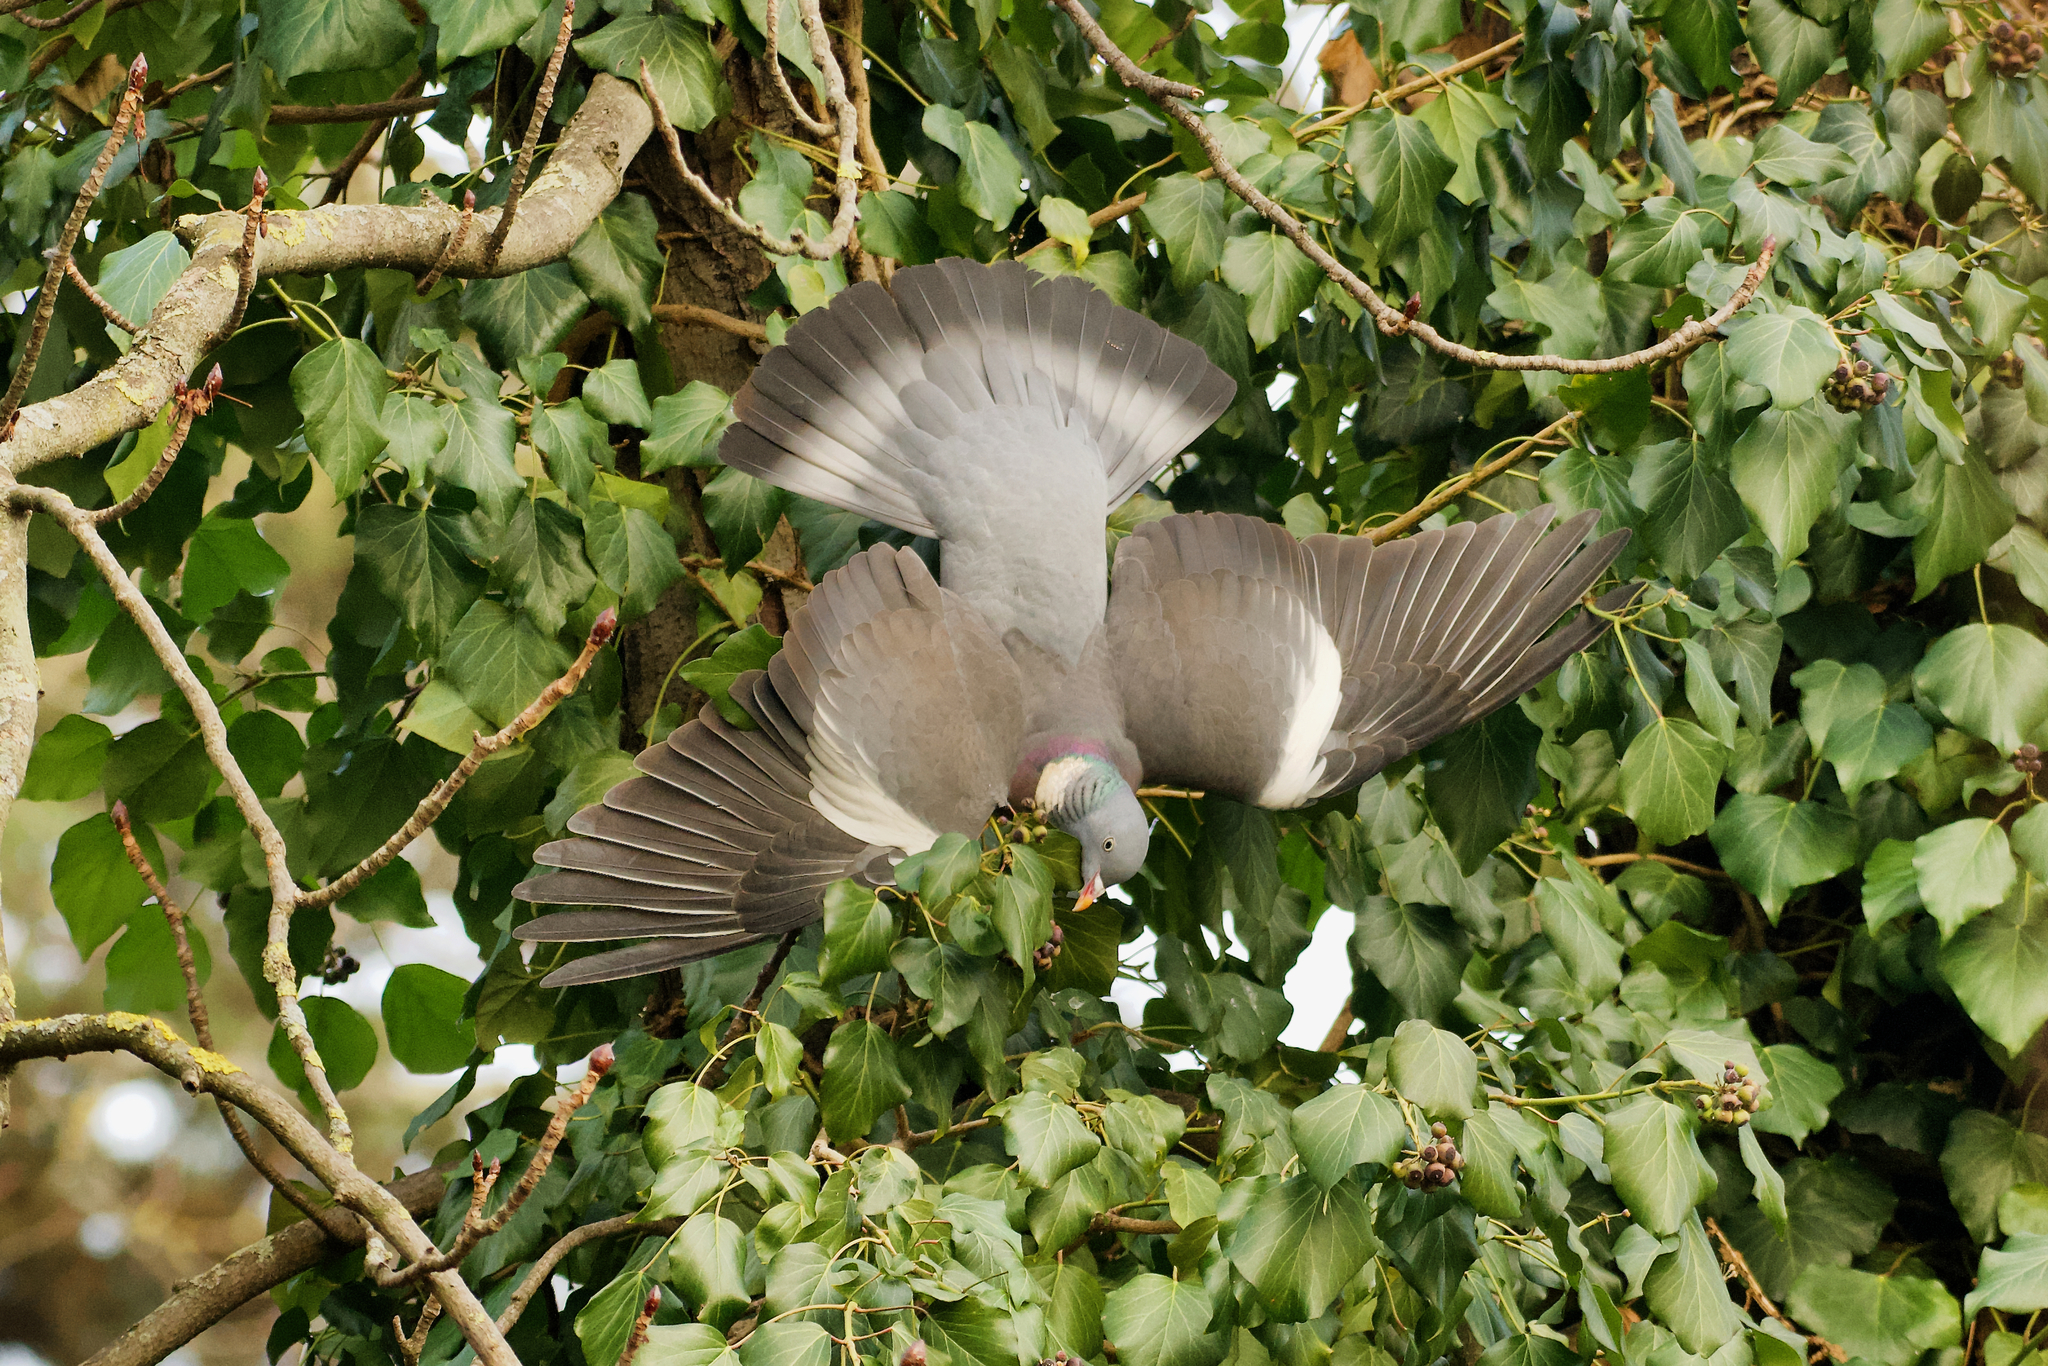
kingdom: Animalia
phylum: Chordata
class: Aves
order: Columbiformes
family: Columbidae
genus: Columba
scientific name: Columba palumbus
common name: Common wood pigeon
